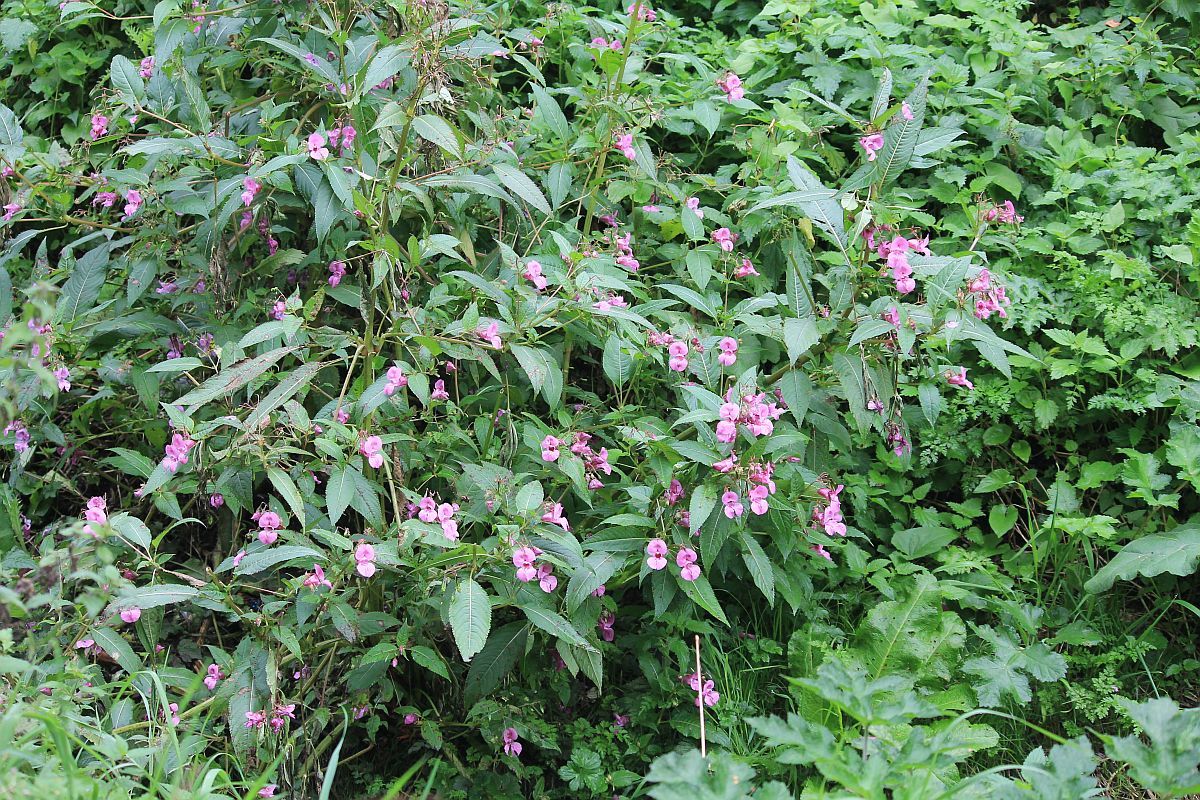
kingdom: Plantae
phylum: Tracheophyta
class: Magnoliopsida
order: Ericales
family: Balsaminaceae
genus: Impatiens
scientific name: Impatiens glandulifera
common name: Himalayan balsam
